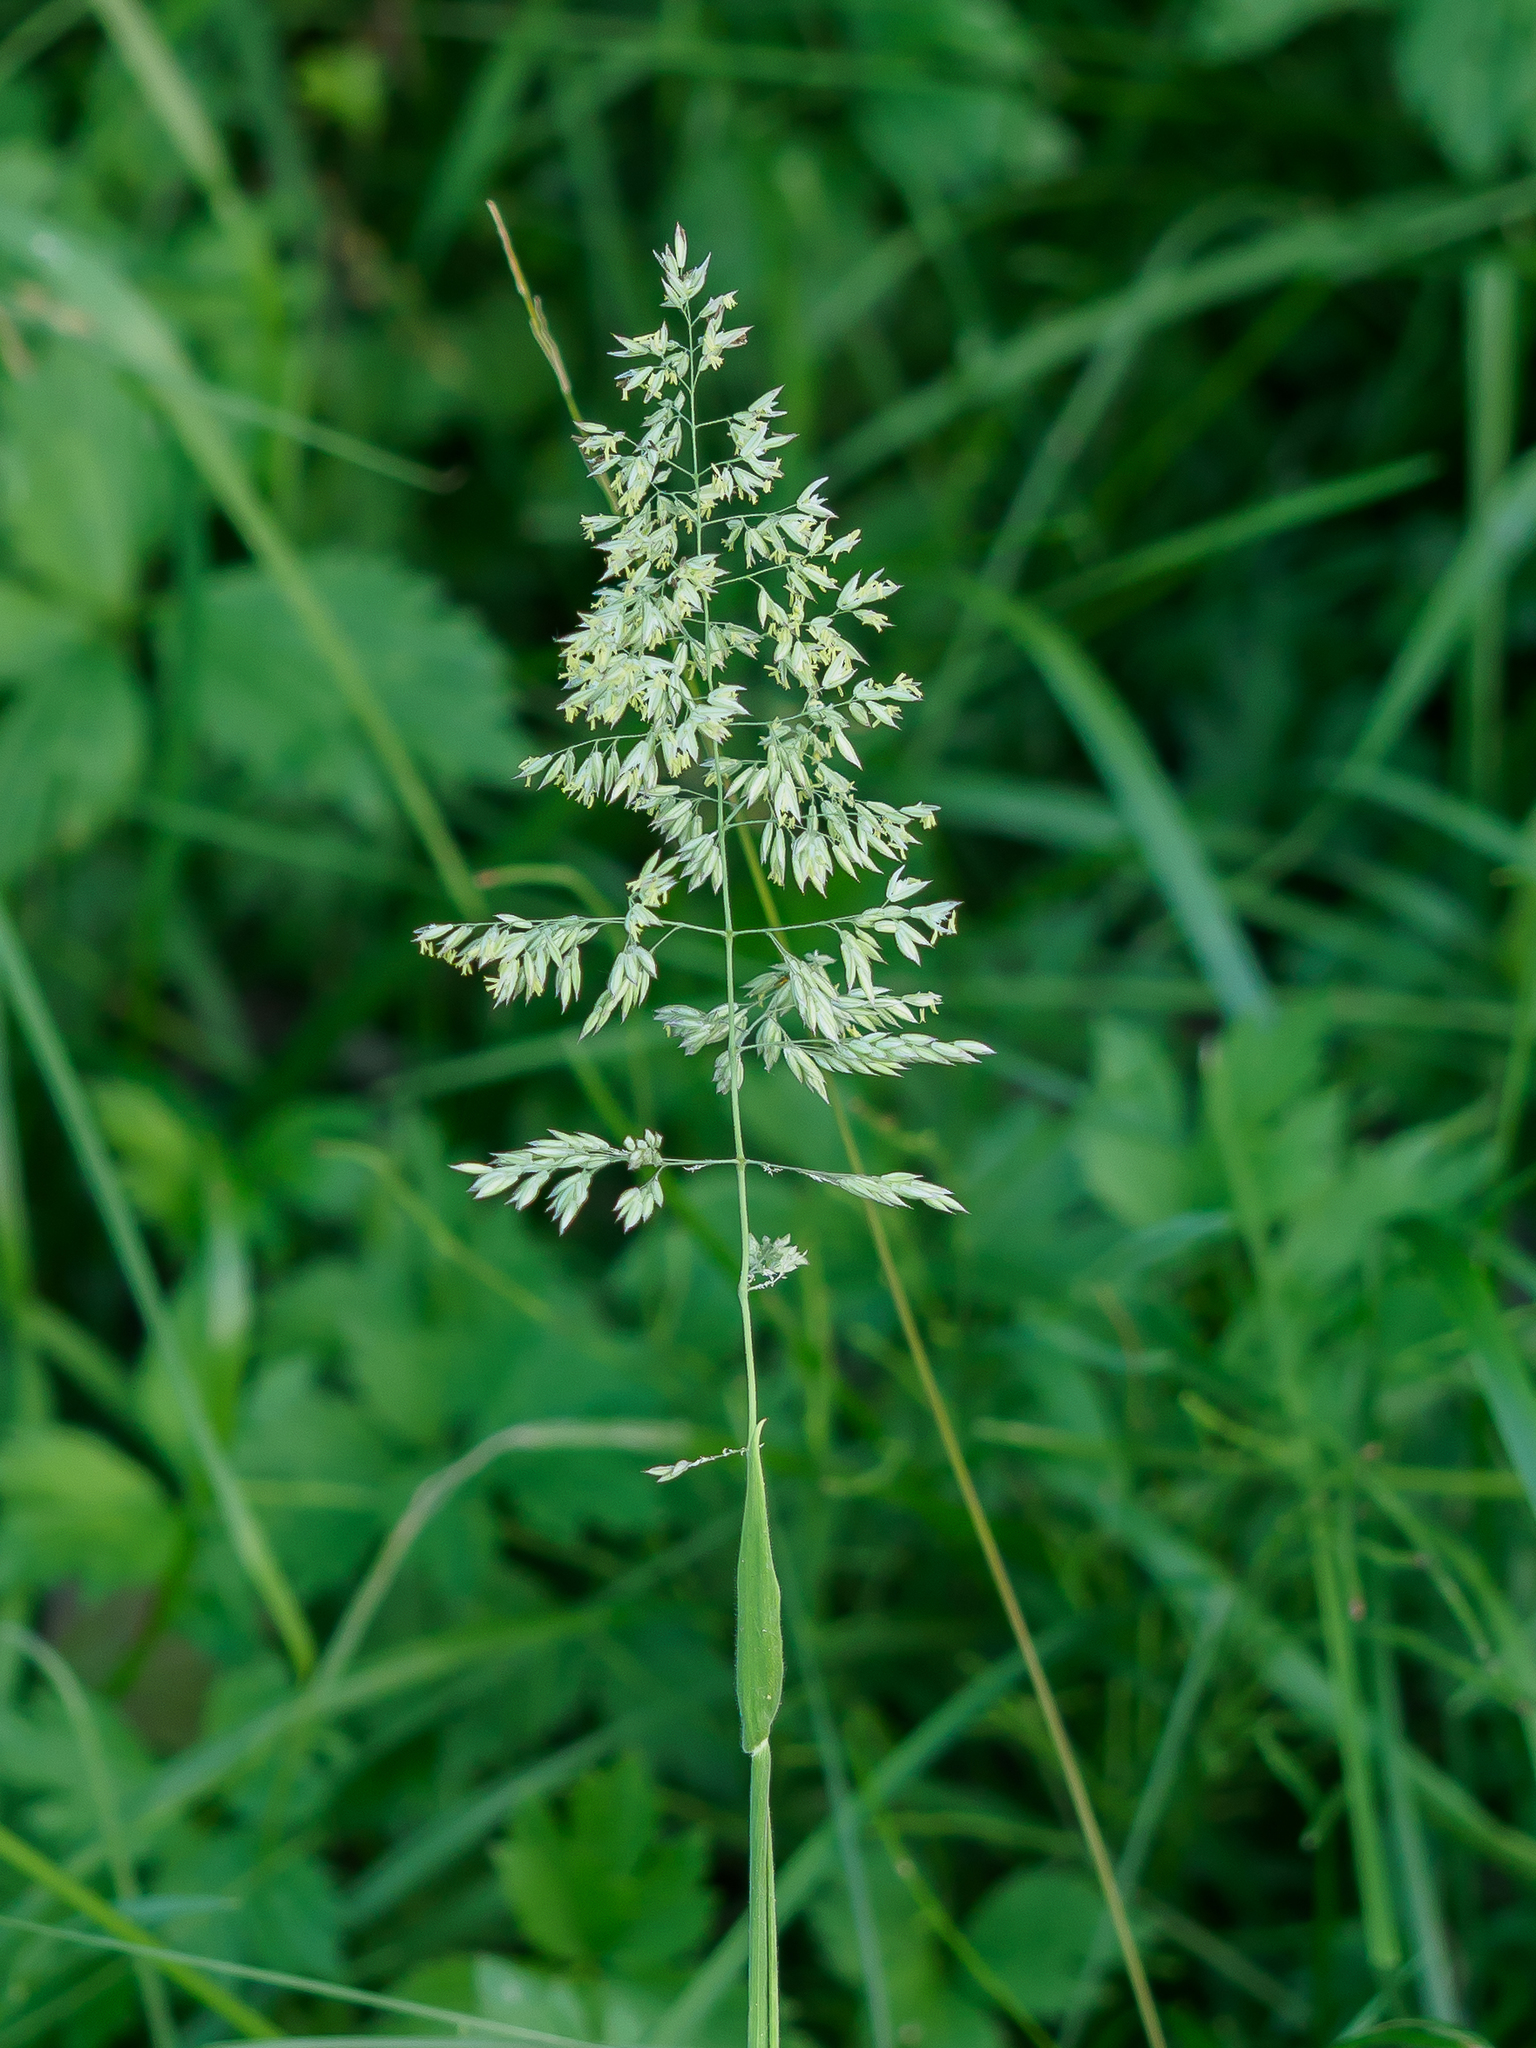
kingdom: Plantae
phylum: Tracheophyta
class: Liliopsida
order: Poales
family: Poaceae
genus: Holcus
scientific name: Holcus lanatus
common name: Yorkshire-fog
